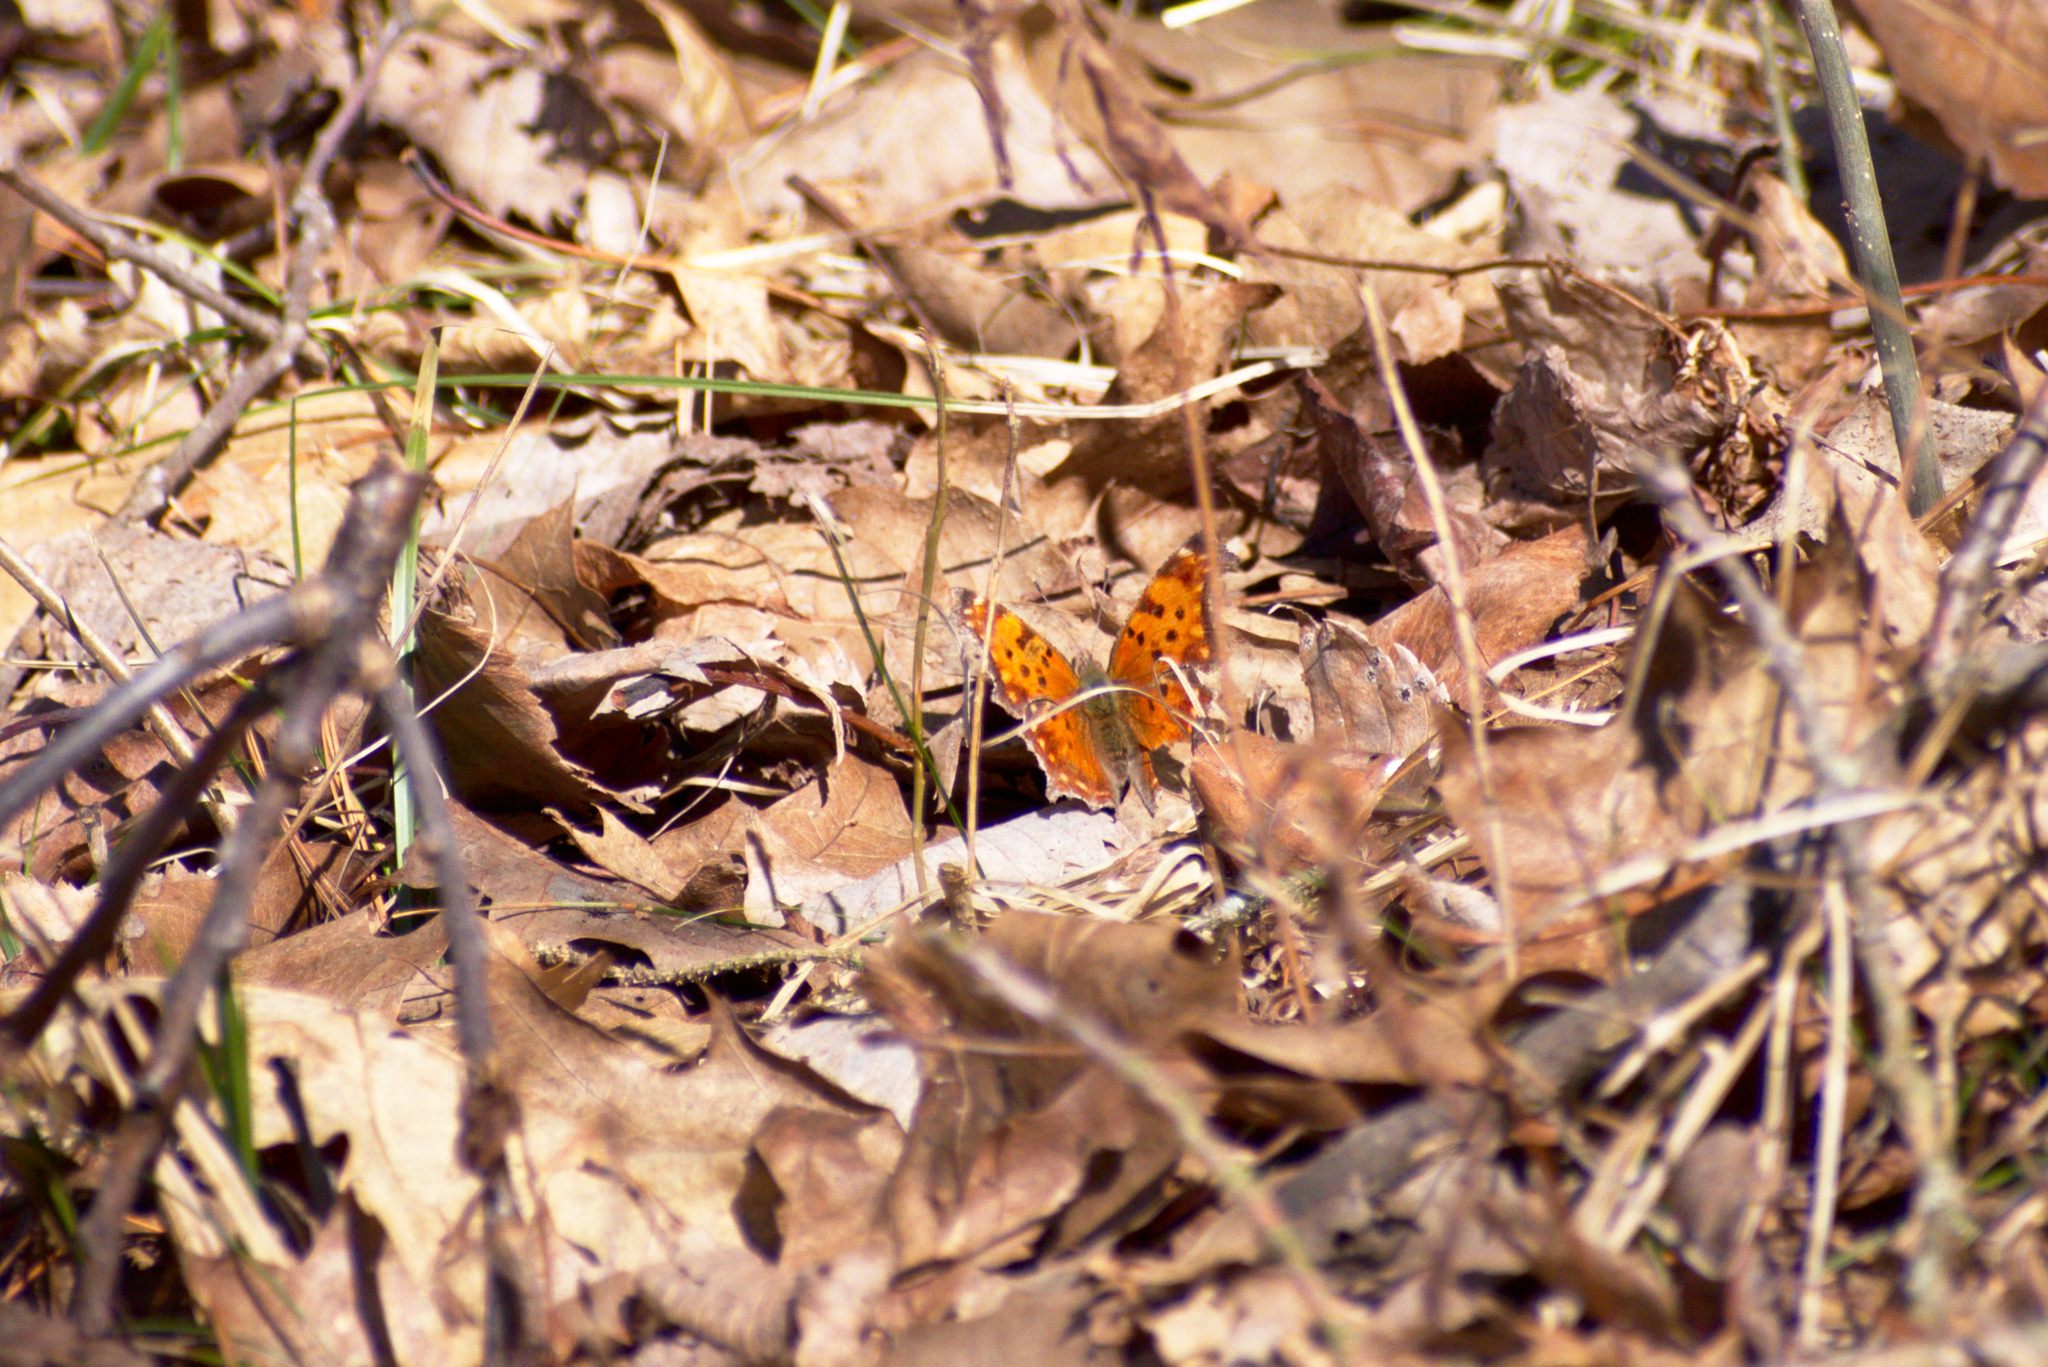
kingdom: Animalia
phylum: Arthropoda
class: Insecta
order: Lepidoptera
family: Nymphalidae
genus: Polygonia
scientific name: Polygonia comma
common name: Eastern comma
